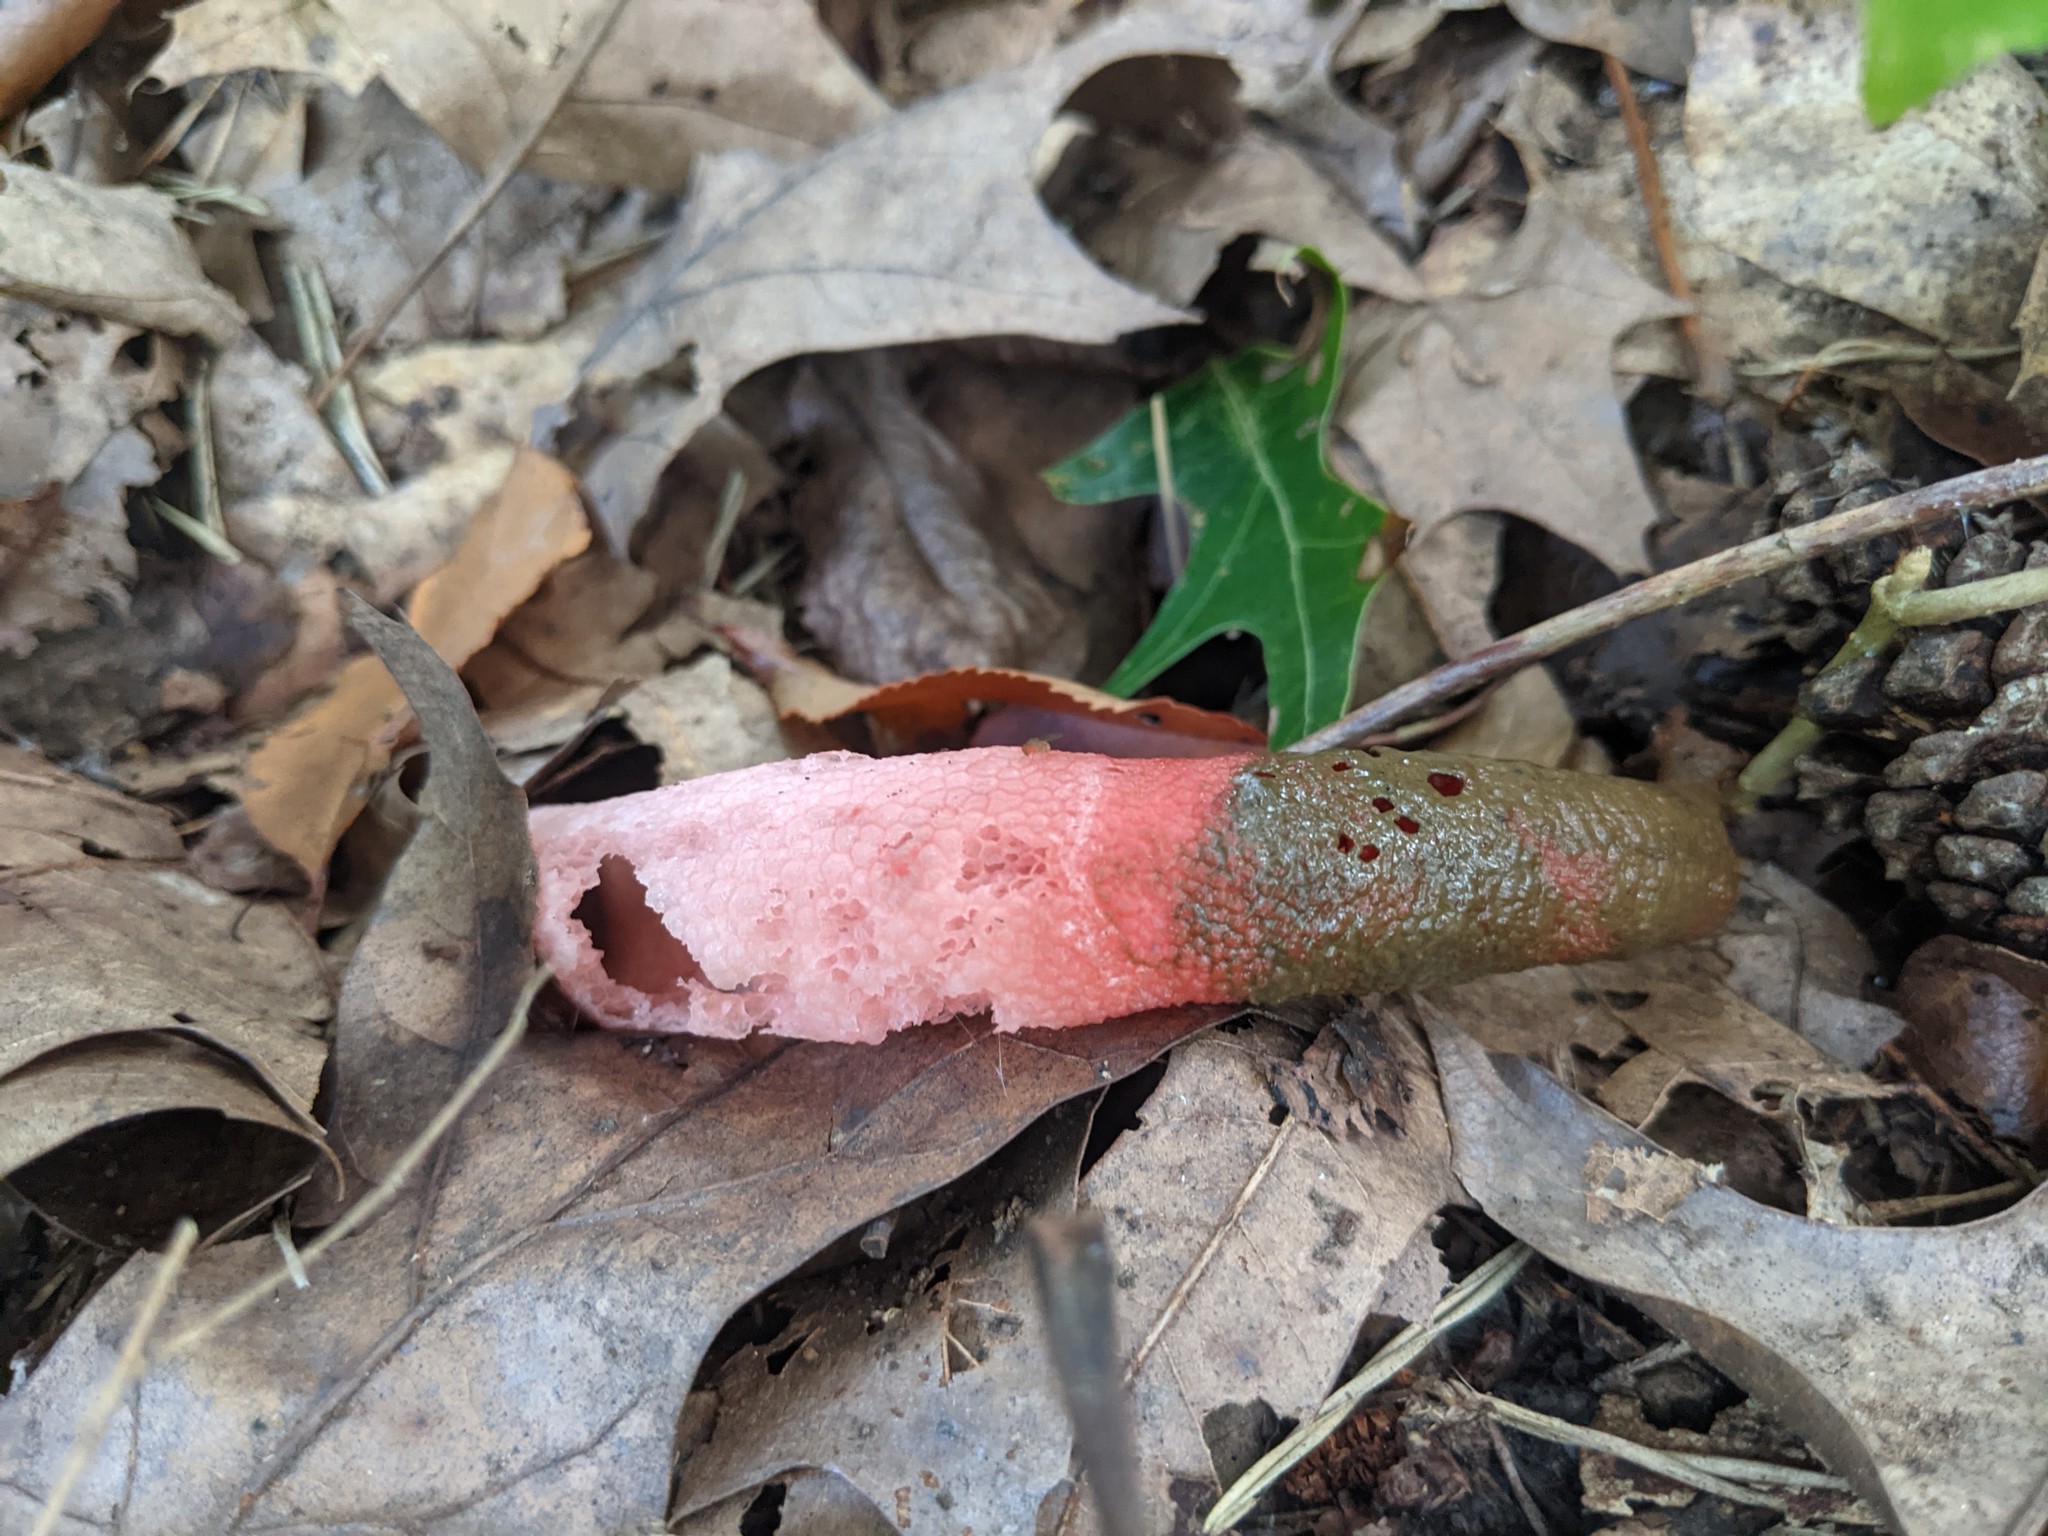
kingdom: Fungi
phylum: Basidiomycota
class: Agaricomycetes
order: Phallales
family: Phallaceae
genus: Mutinus
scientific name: Mutinus elegans
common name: Devil's dipstick
